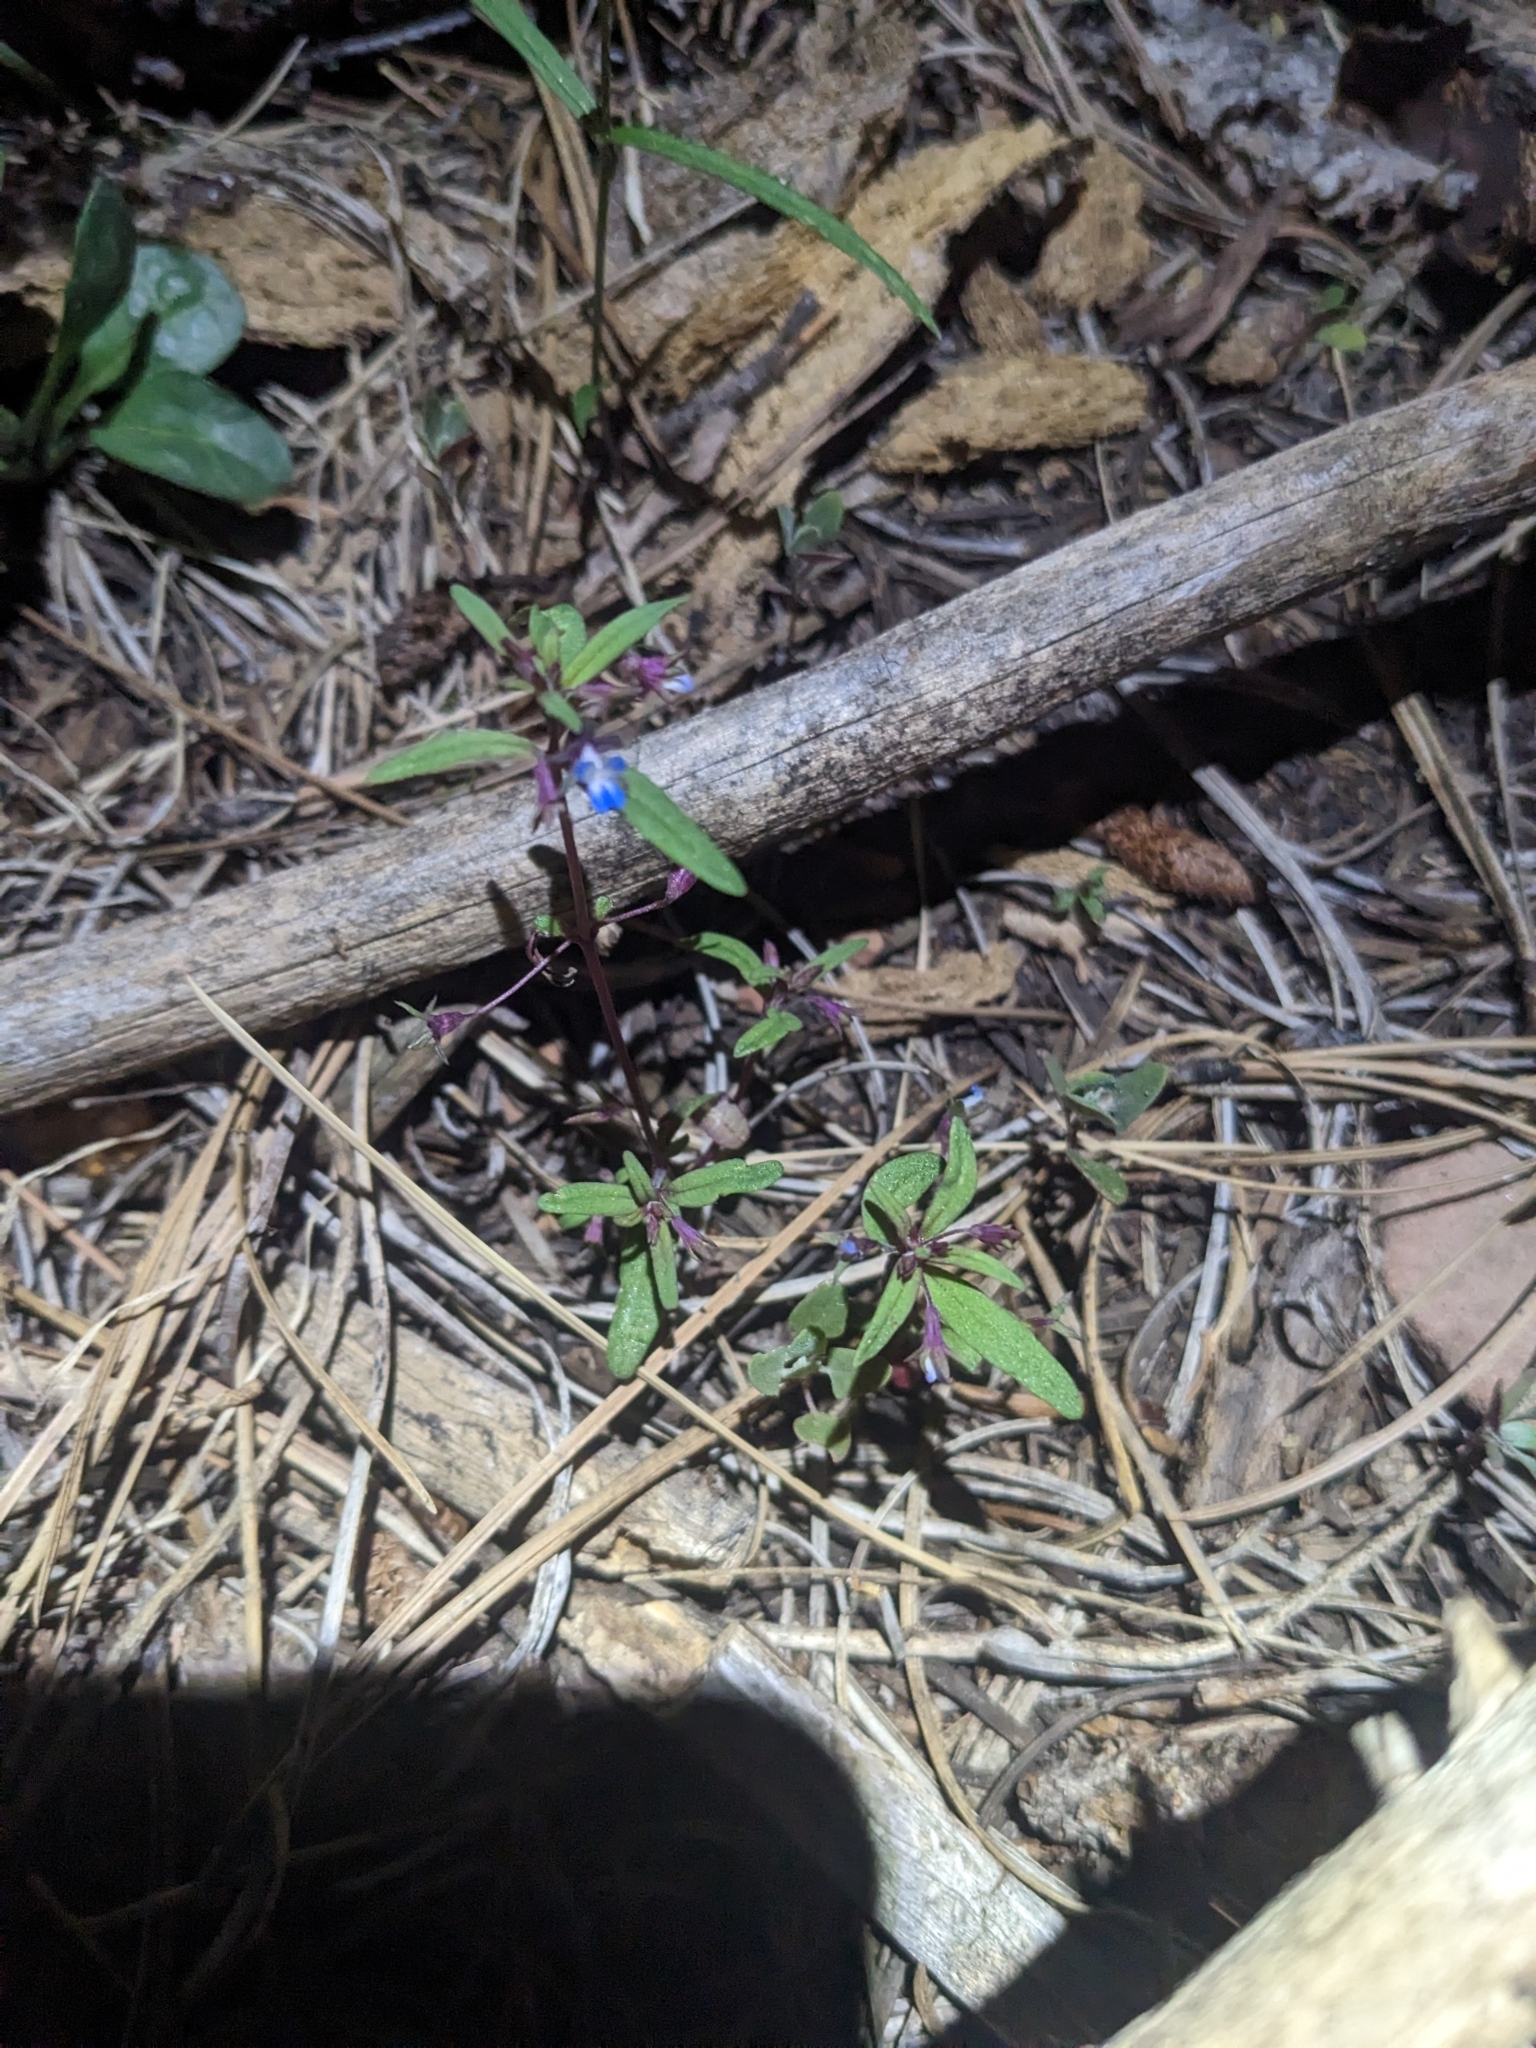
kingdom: Plantae
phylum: Tracheophyta
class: Magnoliopsida
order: Lamiales
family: Plantaginaceae
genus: Collinsia
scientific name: Collinsia parviflora
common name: Blue-lips
